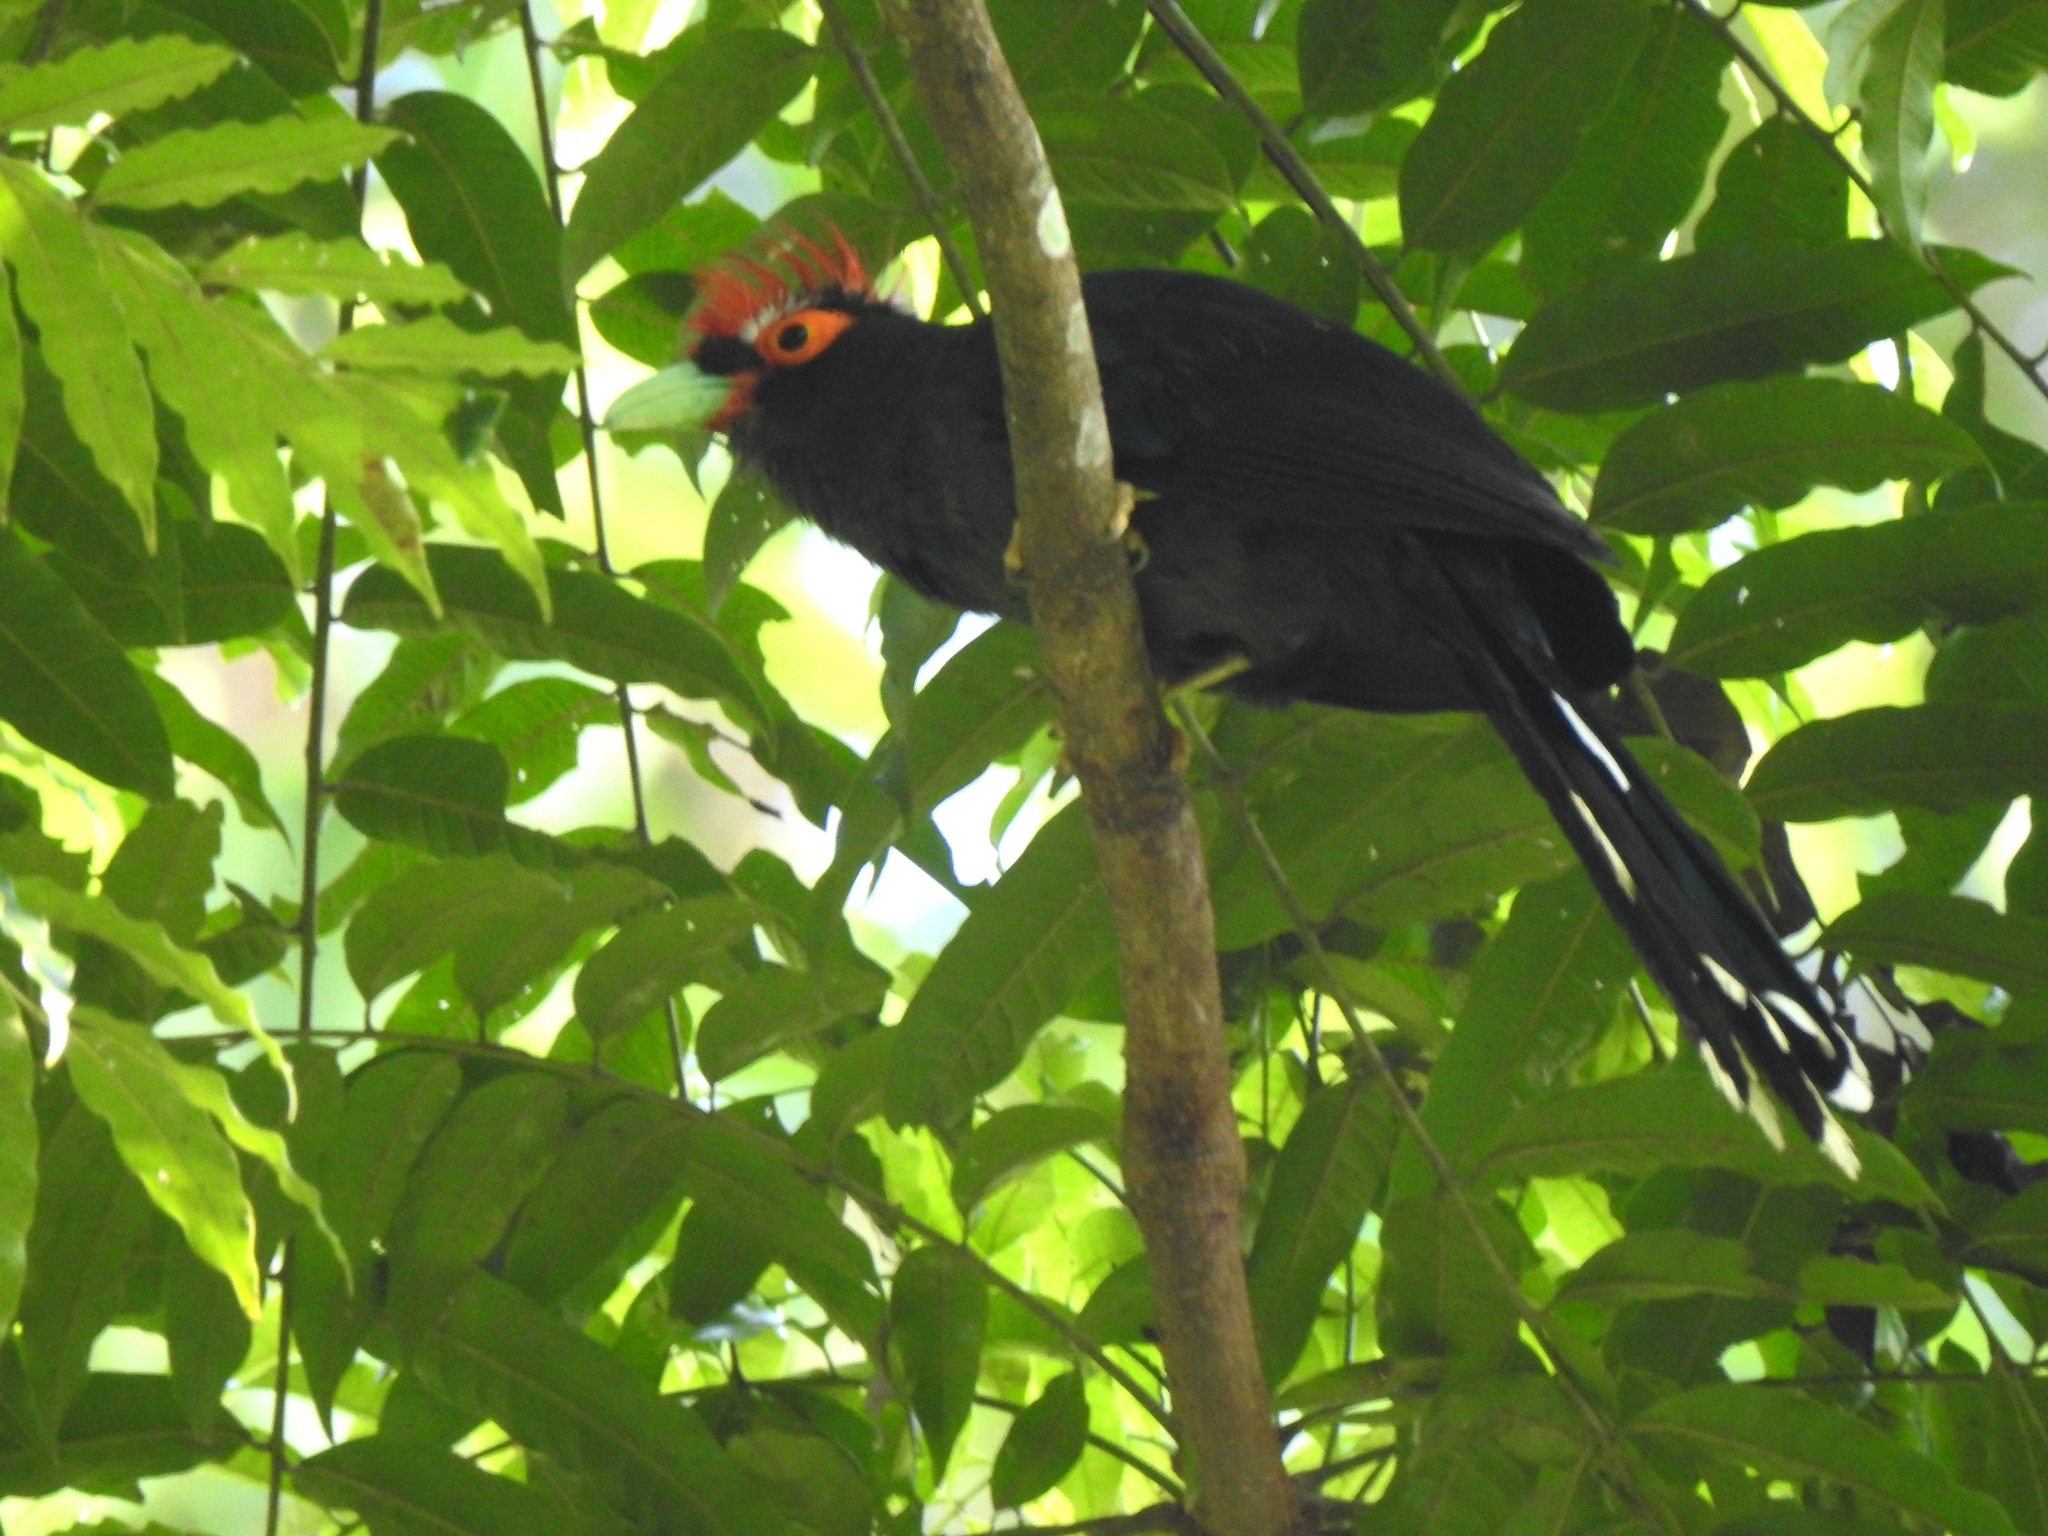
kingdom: Animalia
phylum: Chordata
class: Aves
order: Cuculiformes
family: Cuculidae
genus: Dasylophus
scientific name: Dasylophus superciliosus
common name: Rough-crested malkoha
